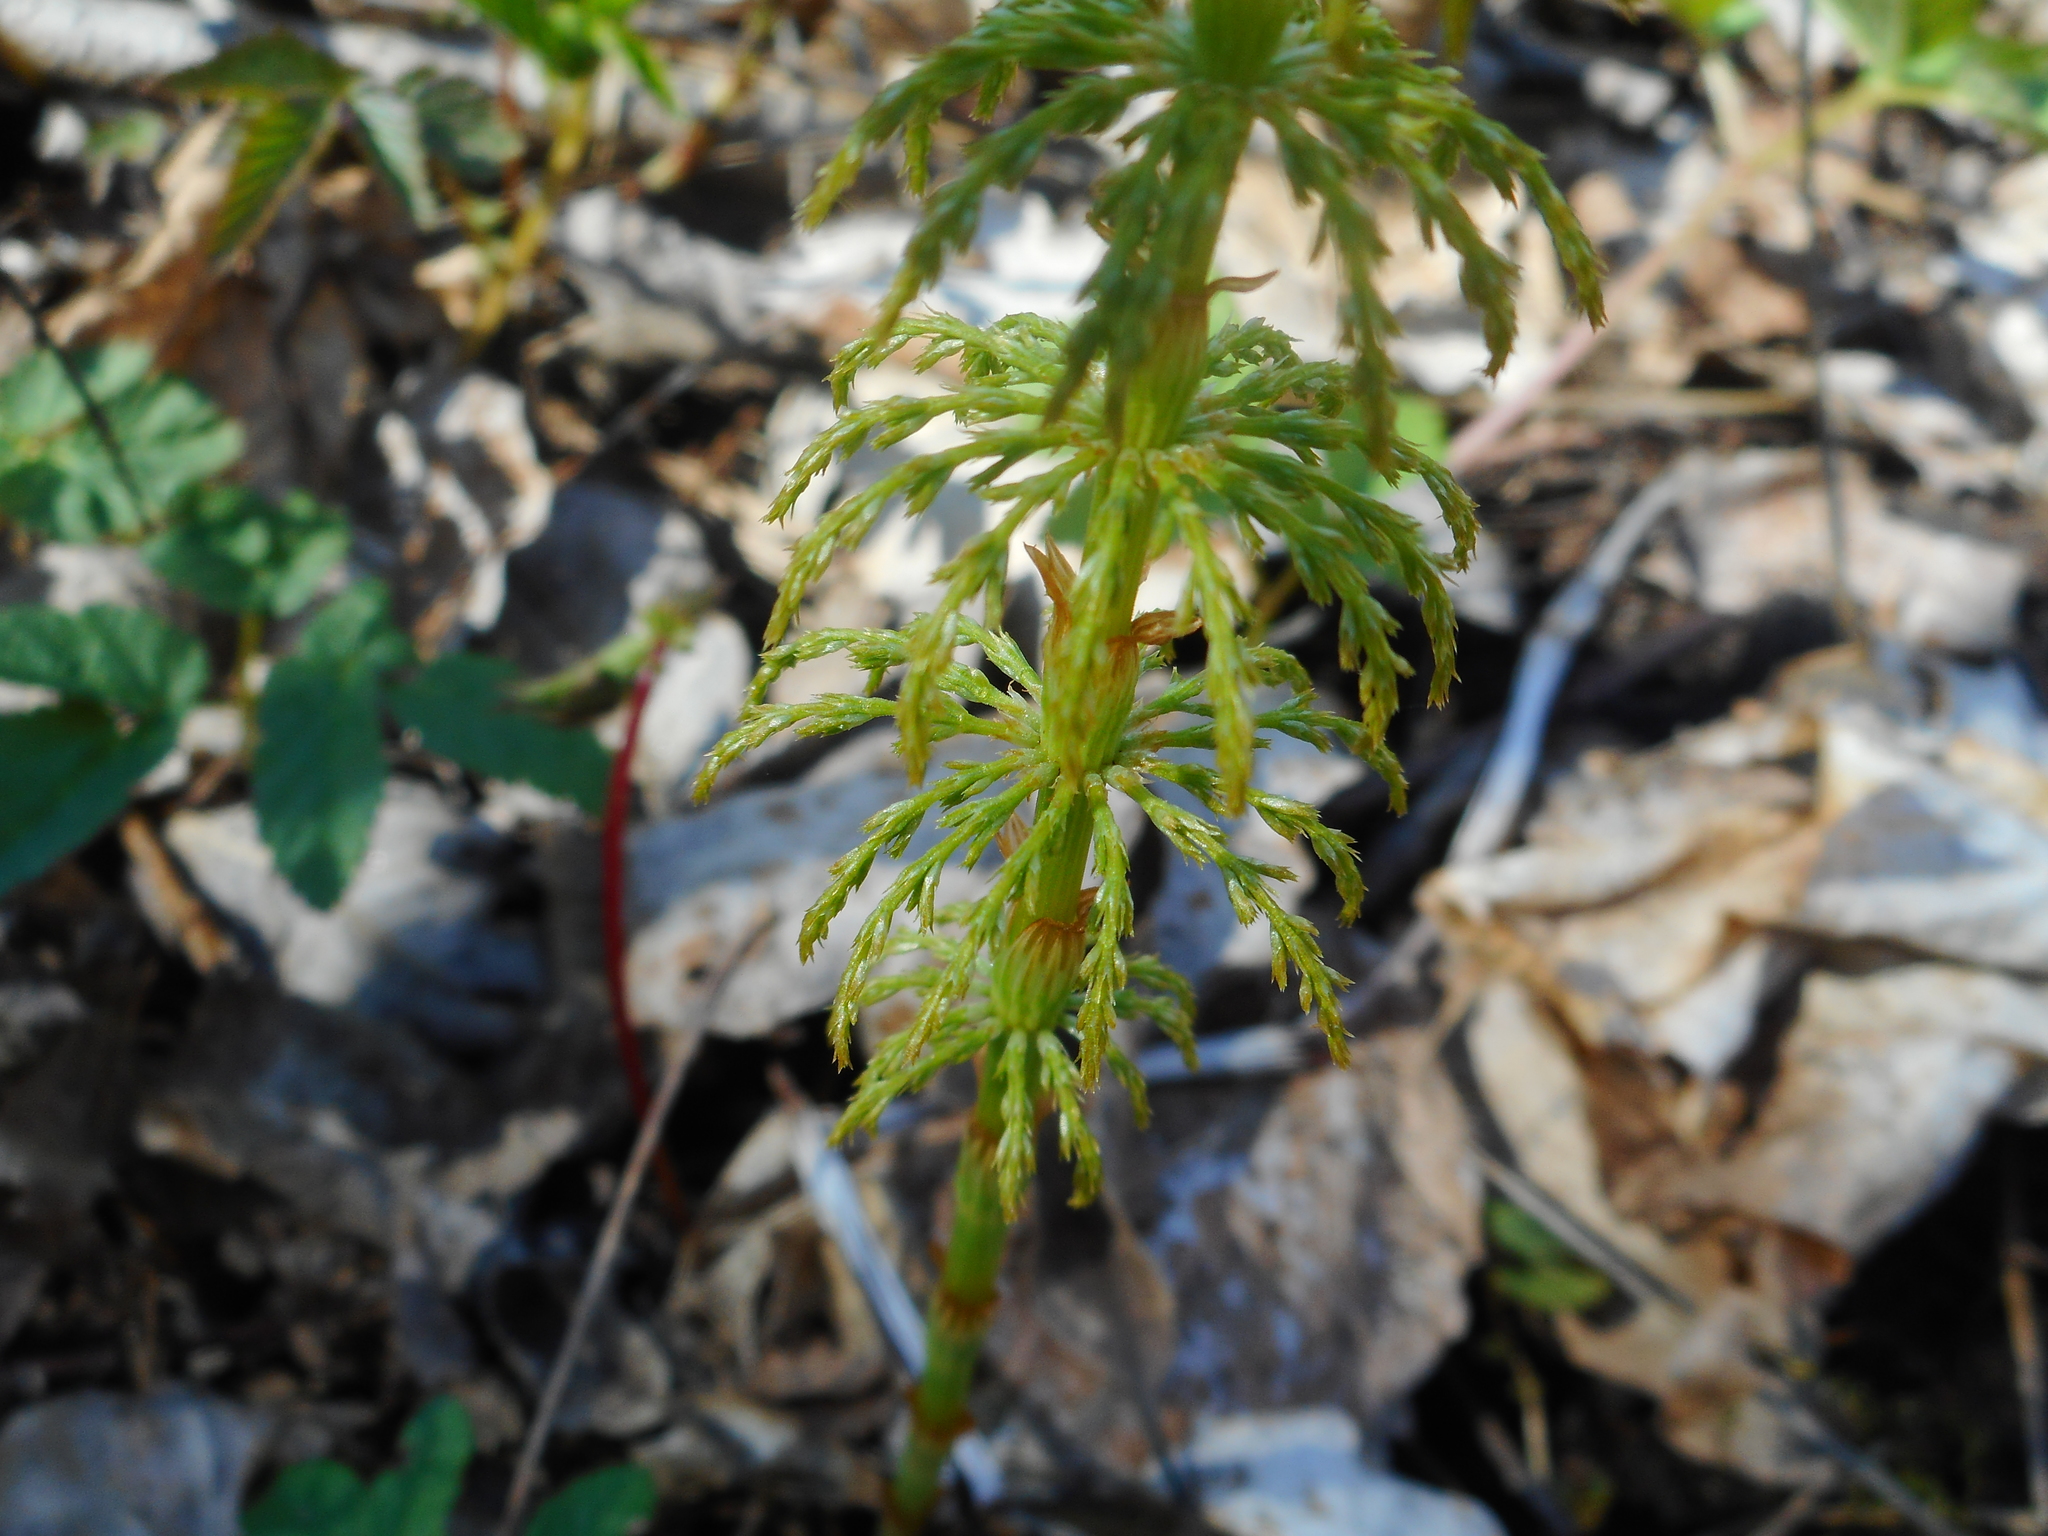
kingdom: Plantae
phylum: Tracheophyta
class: Polypodiopsida
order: Equisetales
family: Equisetaceae
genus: Equisetum
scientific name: Equisetum sylvaticum
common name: Wood horsetail
